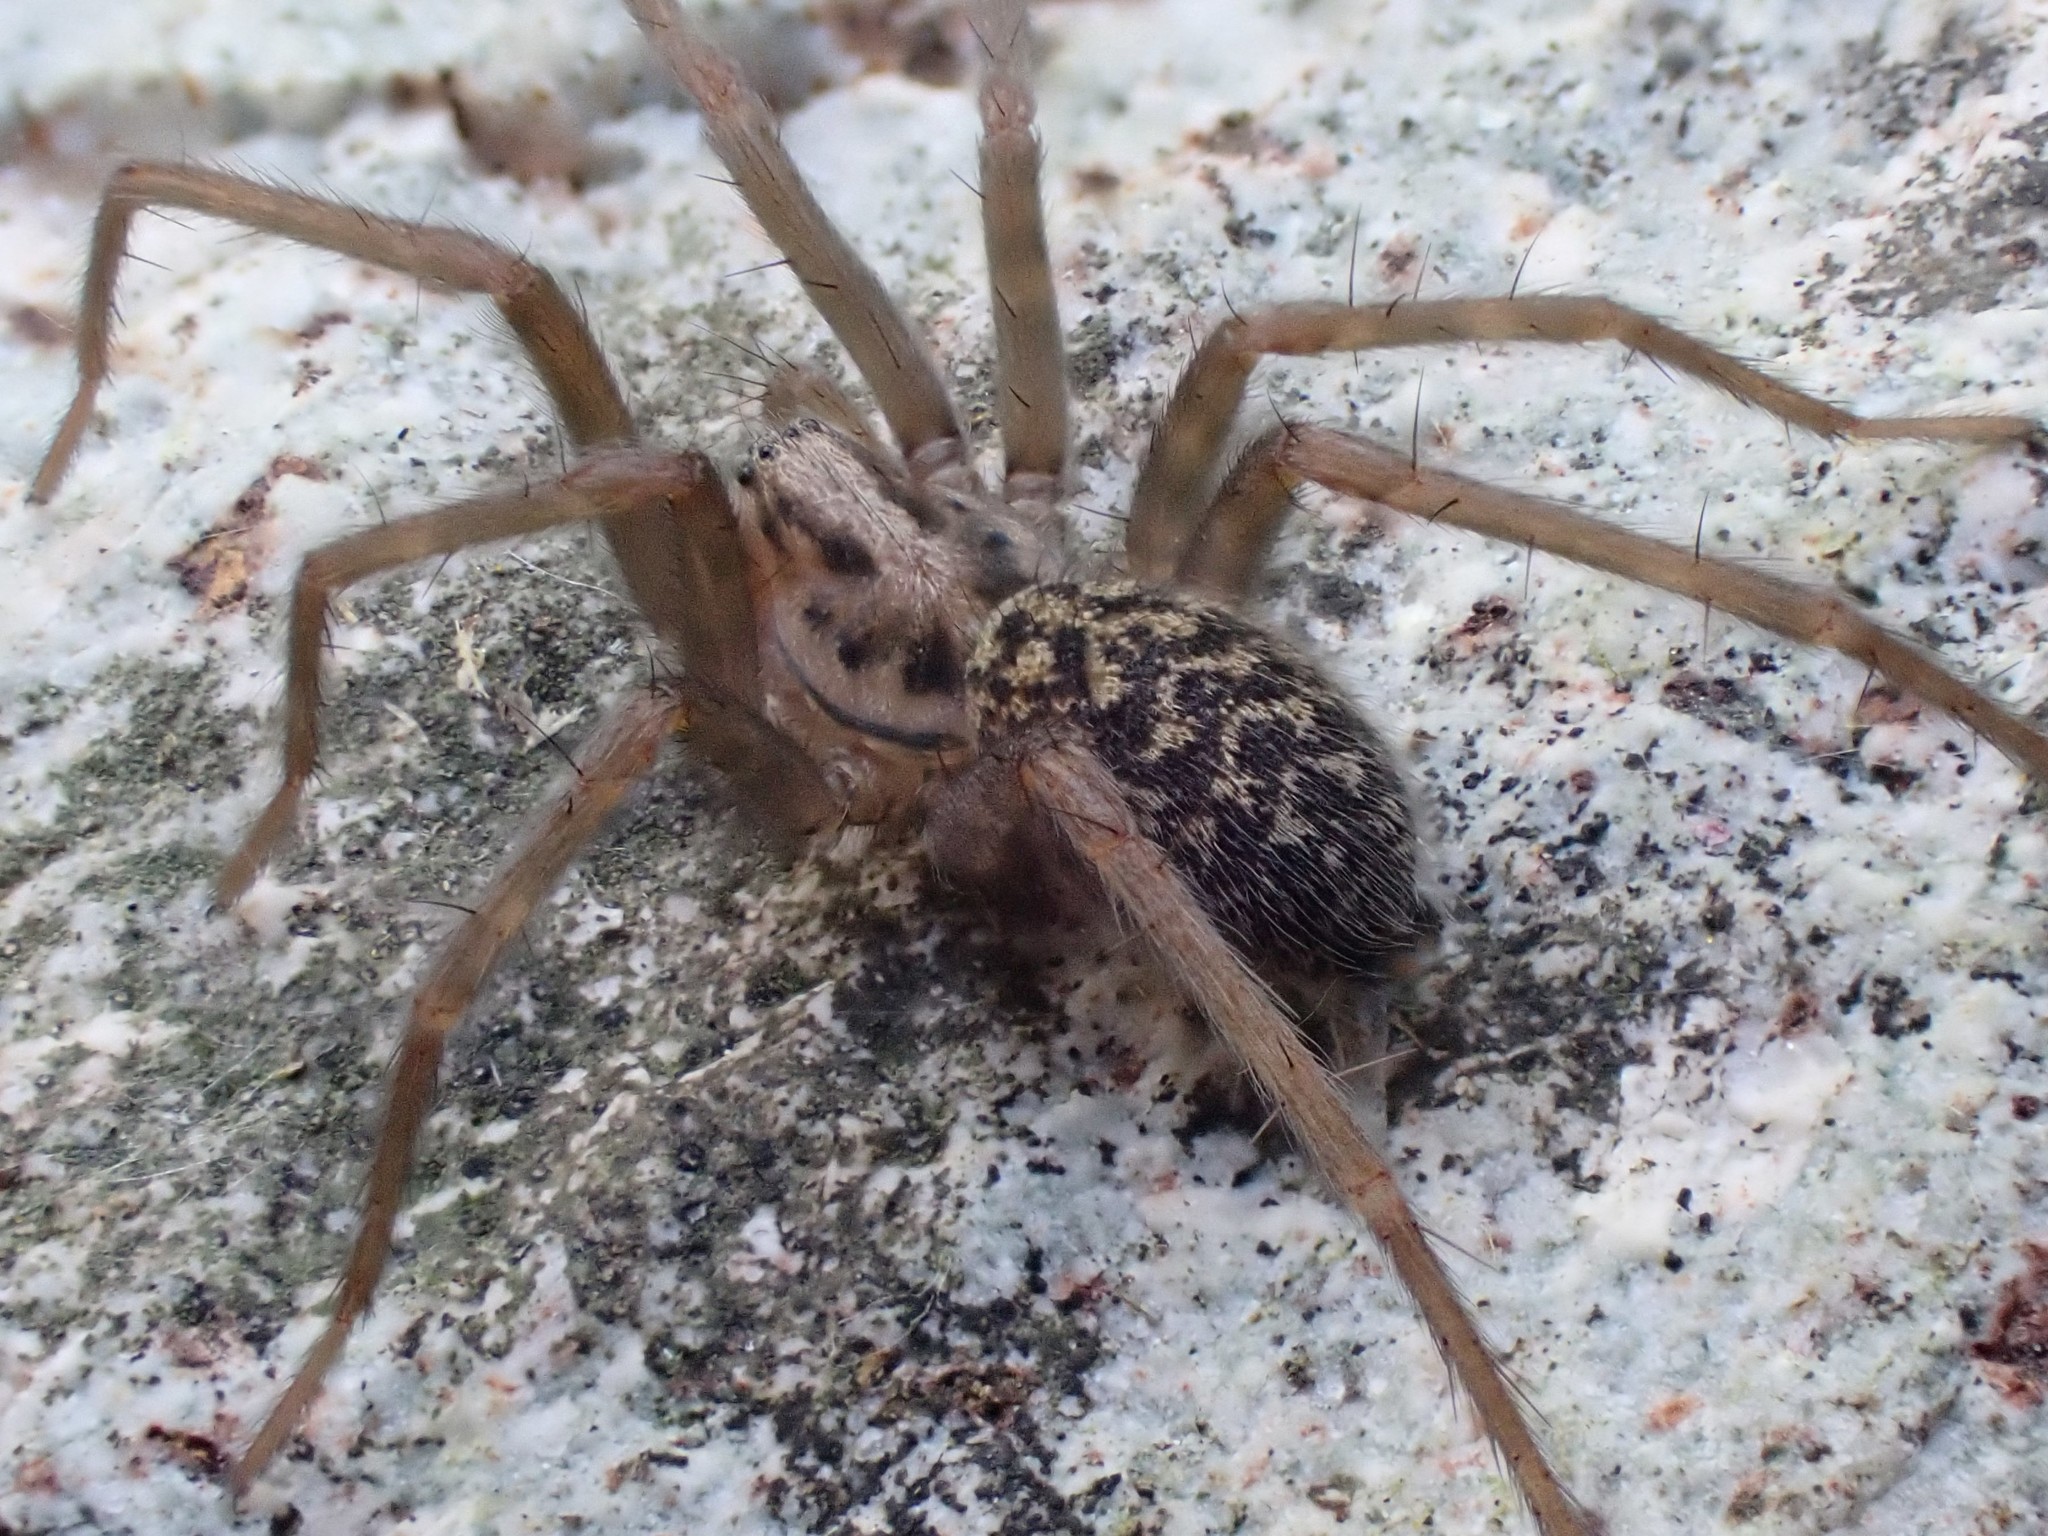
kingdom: Animalia
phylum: Arthropoda
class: Arachnida
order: Araneae
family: Agelenidae
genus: Eratigena
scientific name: Eratigena duellica
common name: Giant house spider
